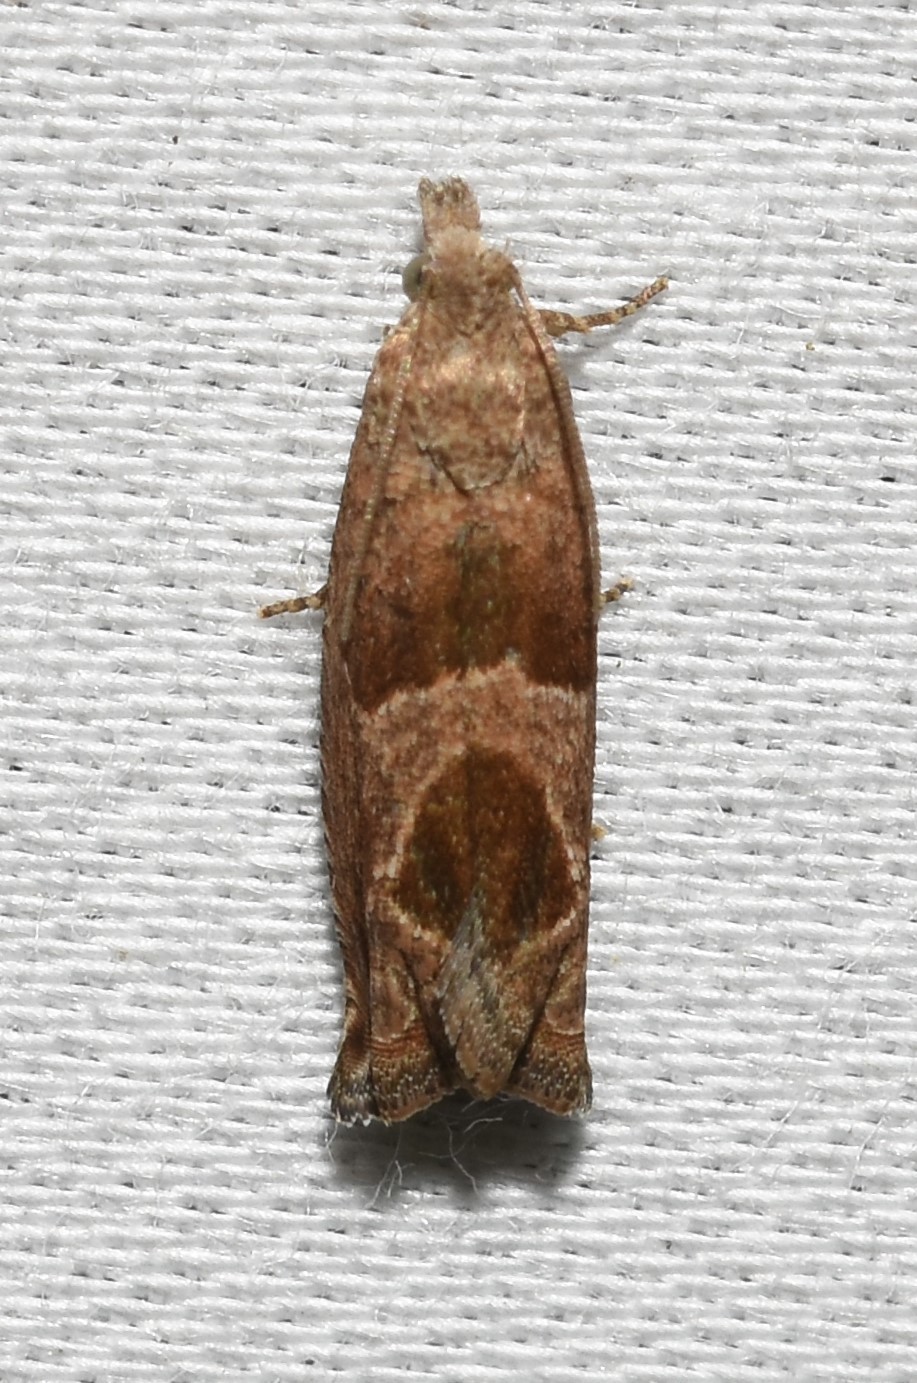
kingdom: Animalia
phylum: Arthropoda
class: Insecta
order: Lepidoptera
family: Tortricidae
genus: Sonia
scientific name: Sonia canadana
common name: Canadian sonia moth
